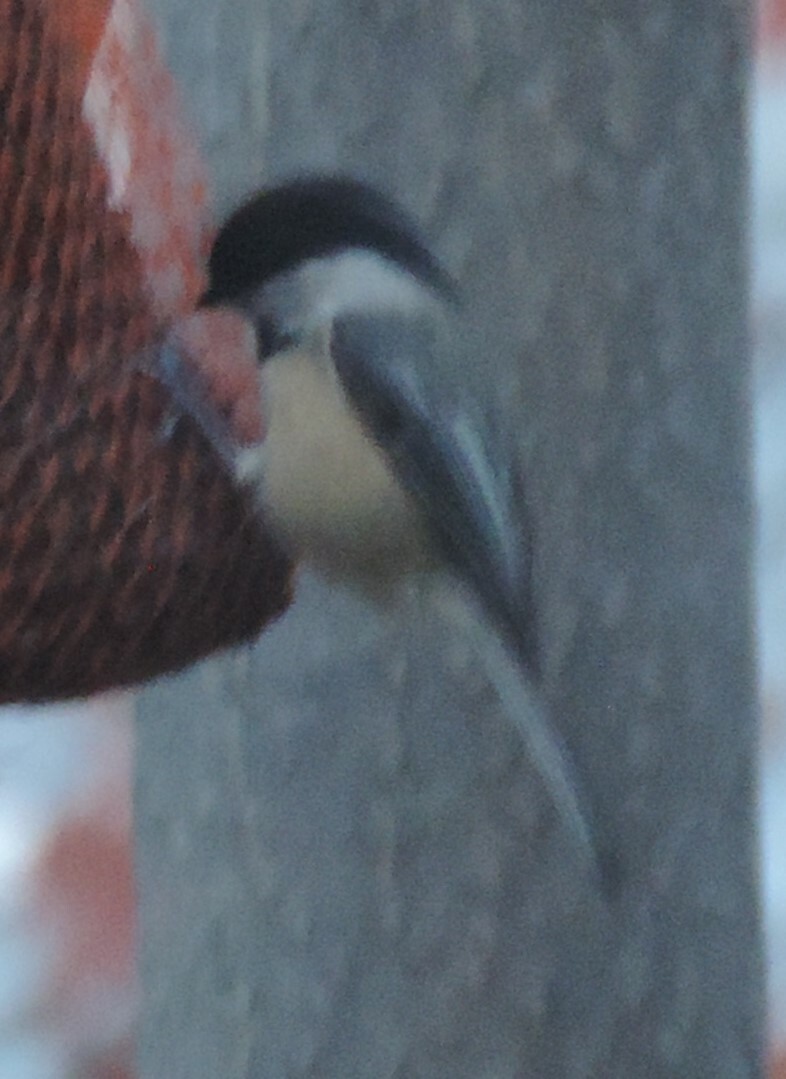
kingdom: Animalia
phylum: Chordata
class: Aves
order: Passeriformes
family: Paridae
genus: Poecile
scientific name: Poecile atricapillus
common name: Black-capped chickadee
